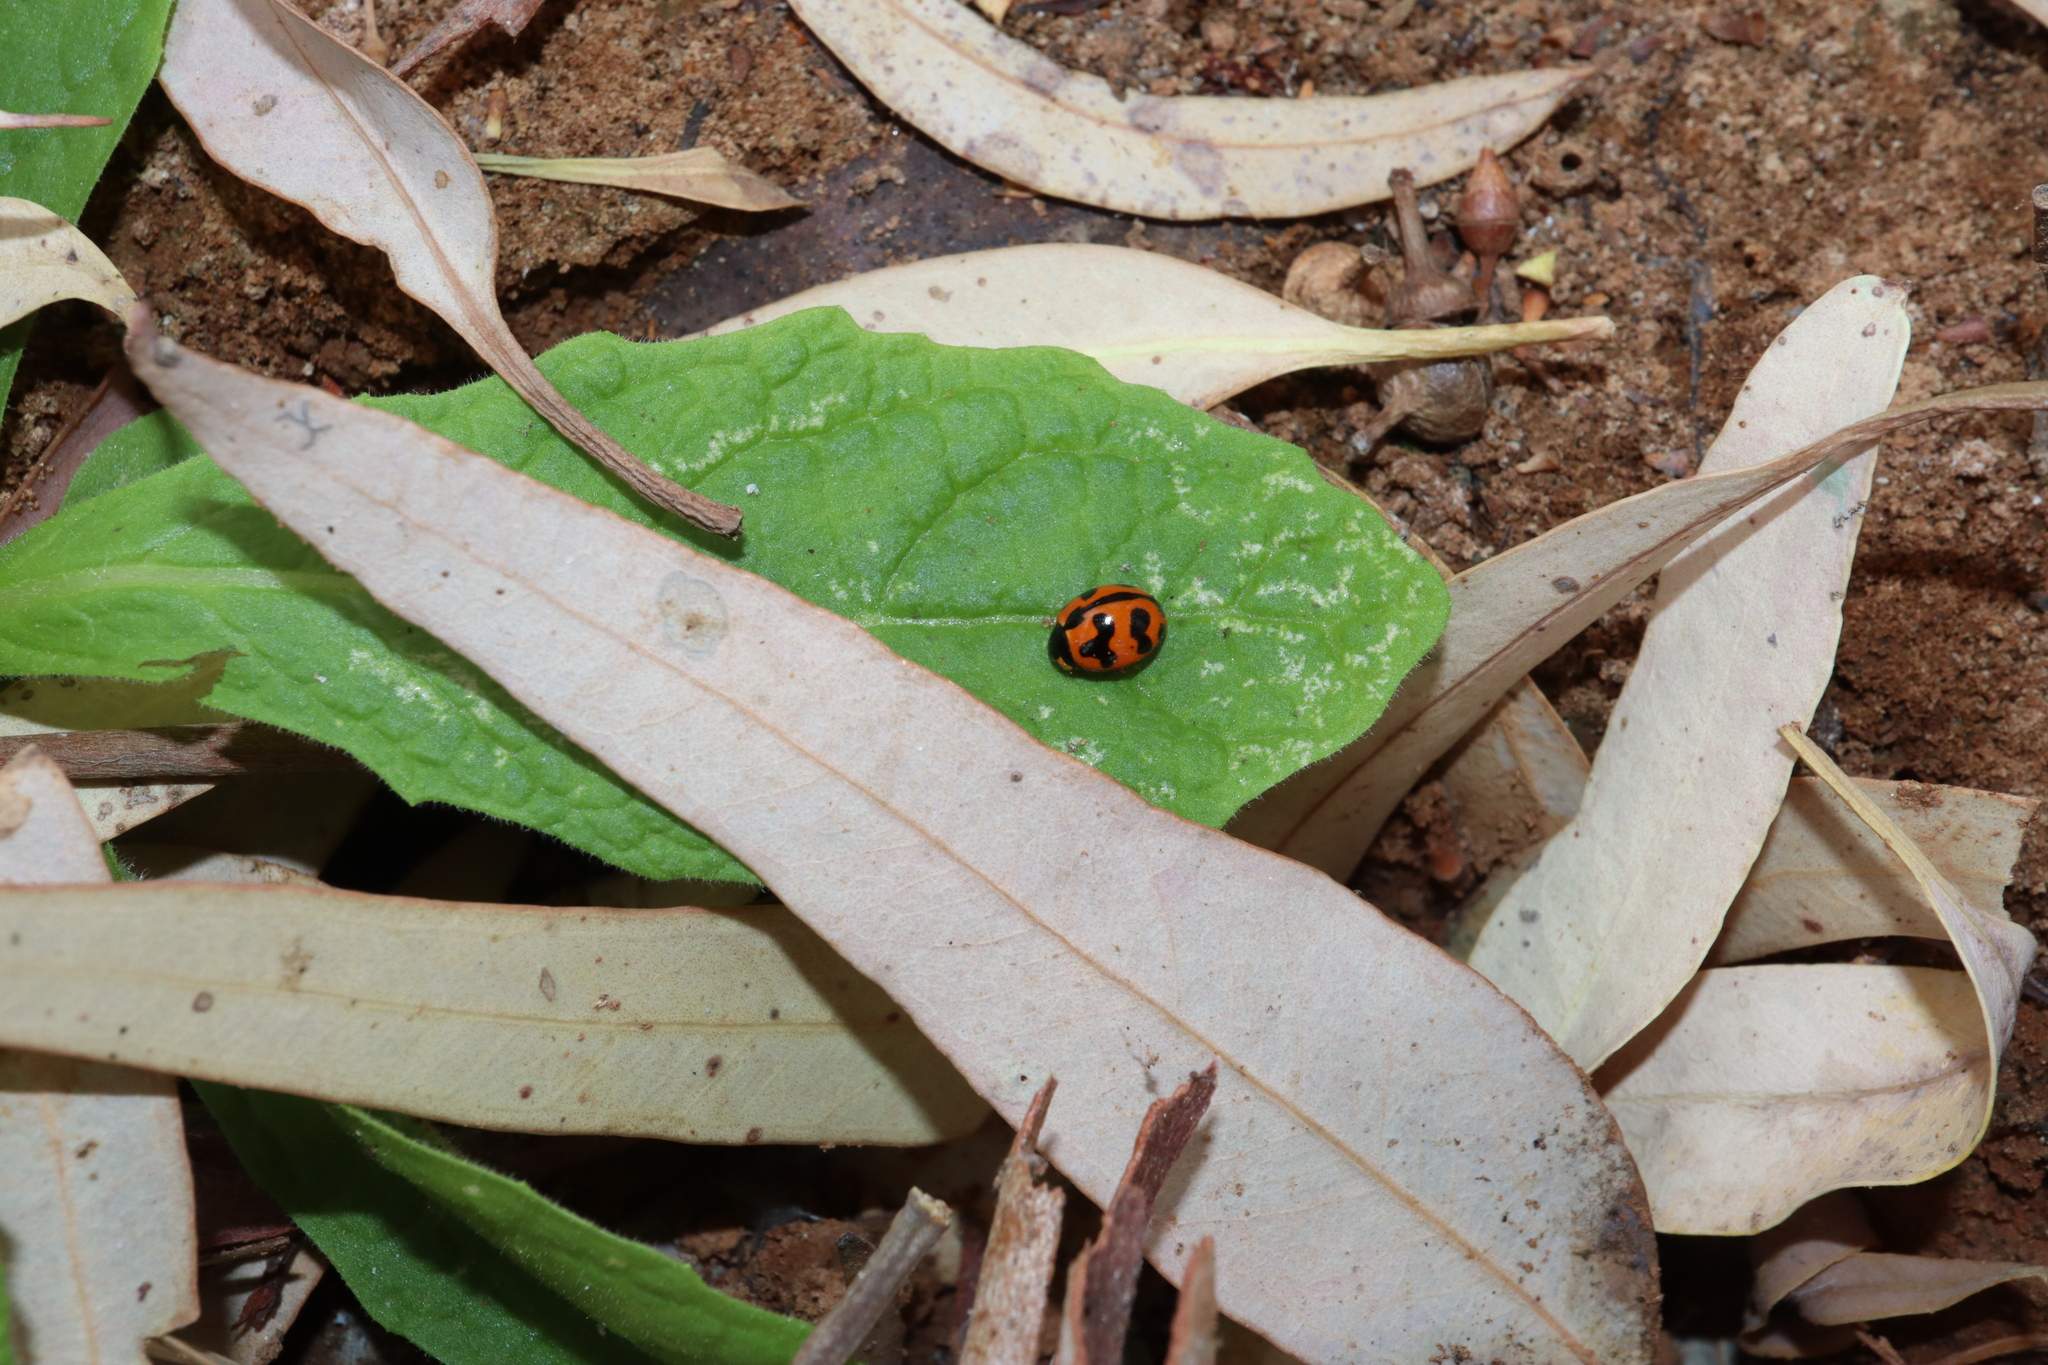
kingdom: Animalia
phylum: Arthropoda
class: Insecta
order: Coleoptera
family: Coccinellidae
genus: Coccinella
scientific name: Coccinella transversalis
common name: Transverse lady beetle
